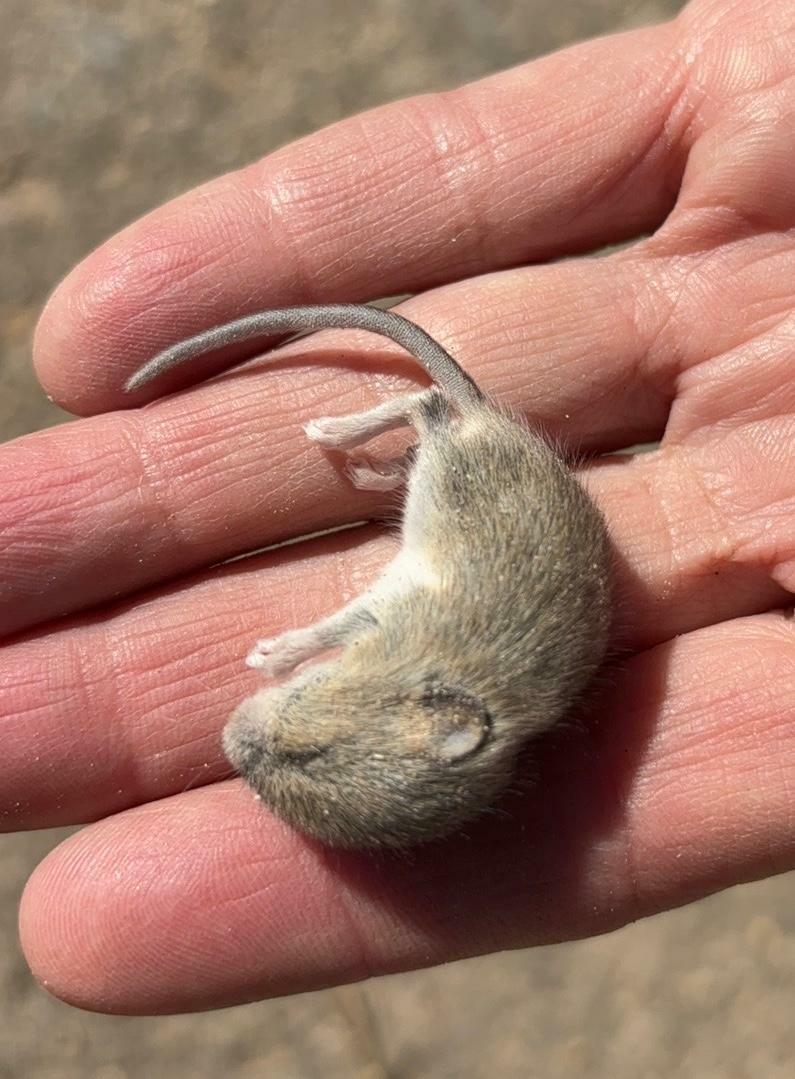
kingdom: Animalia
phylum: Chordata
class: Mammalia
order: Rodentia
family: Cricetidae
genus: Reithrodontomys
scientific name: Reithrodontomys megalotis
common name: Western harvest mouse
